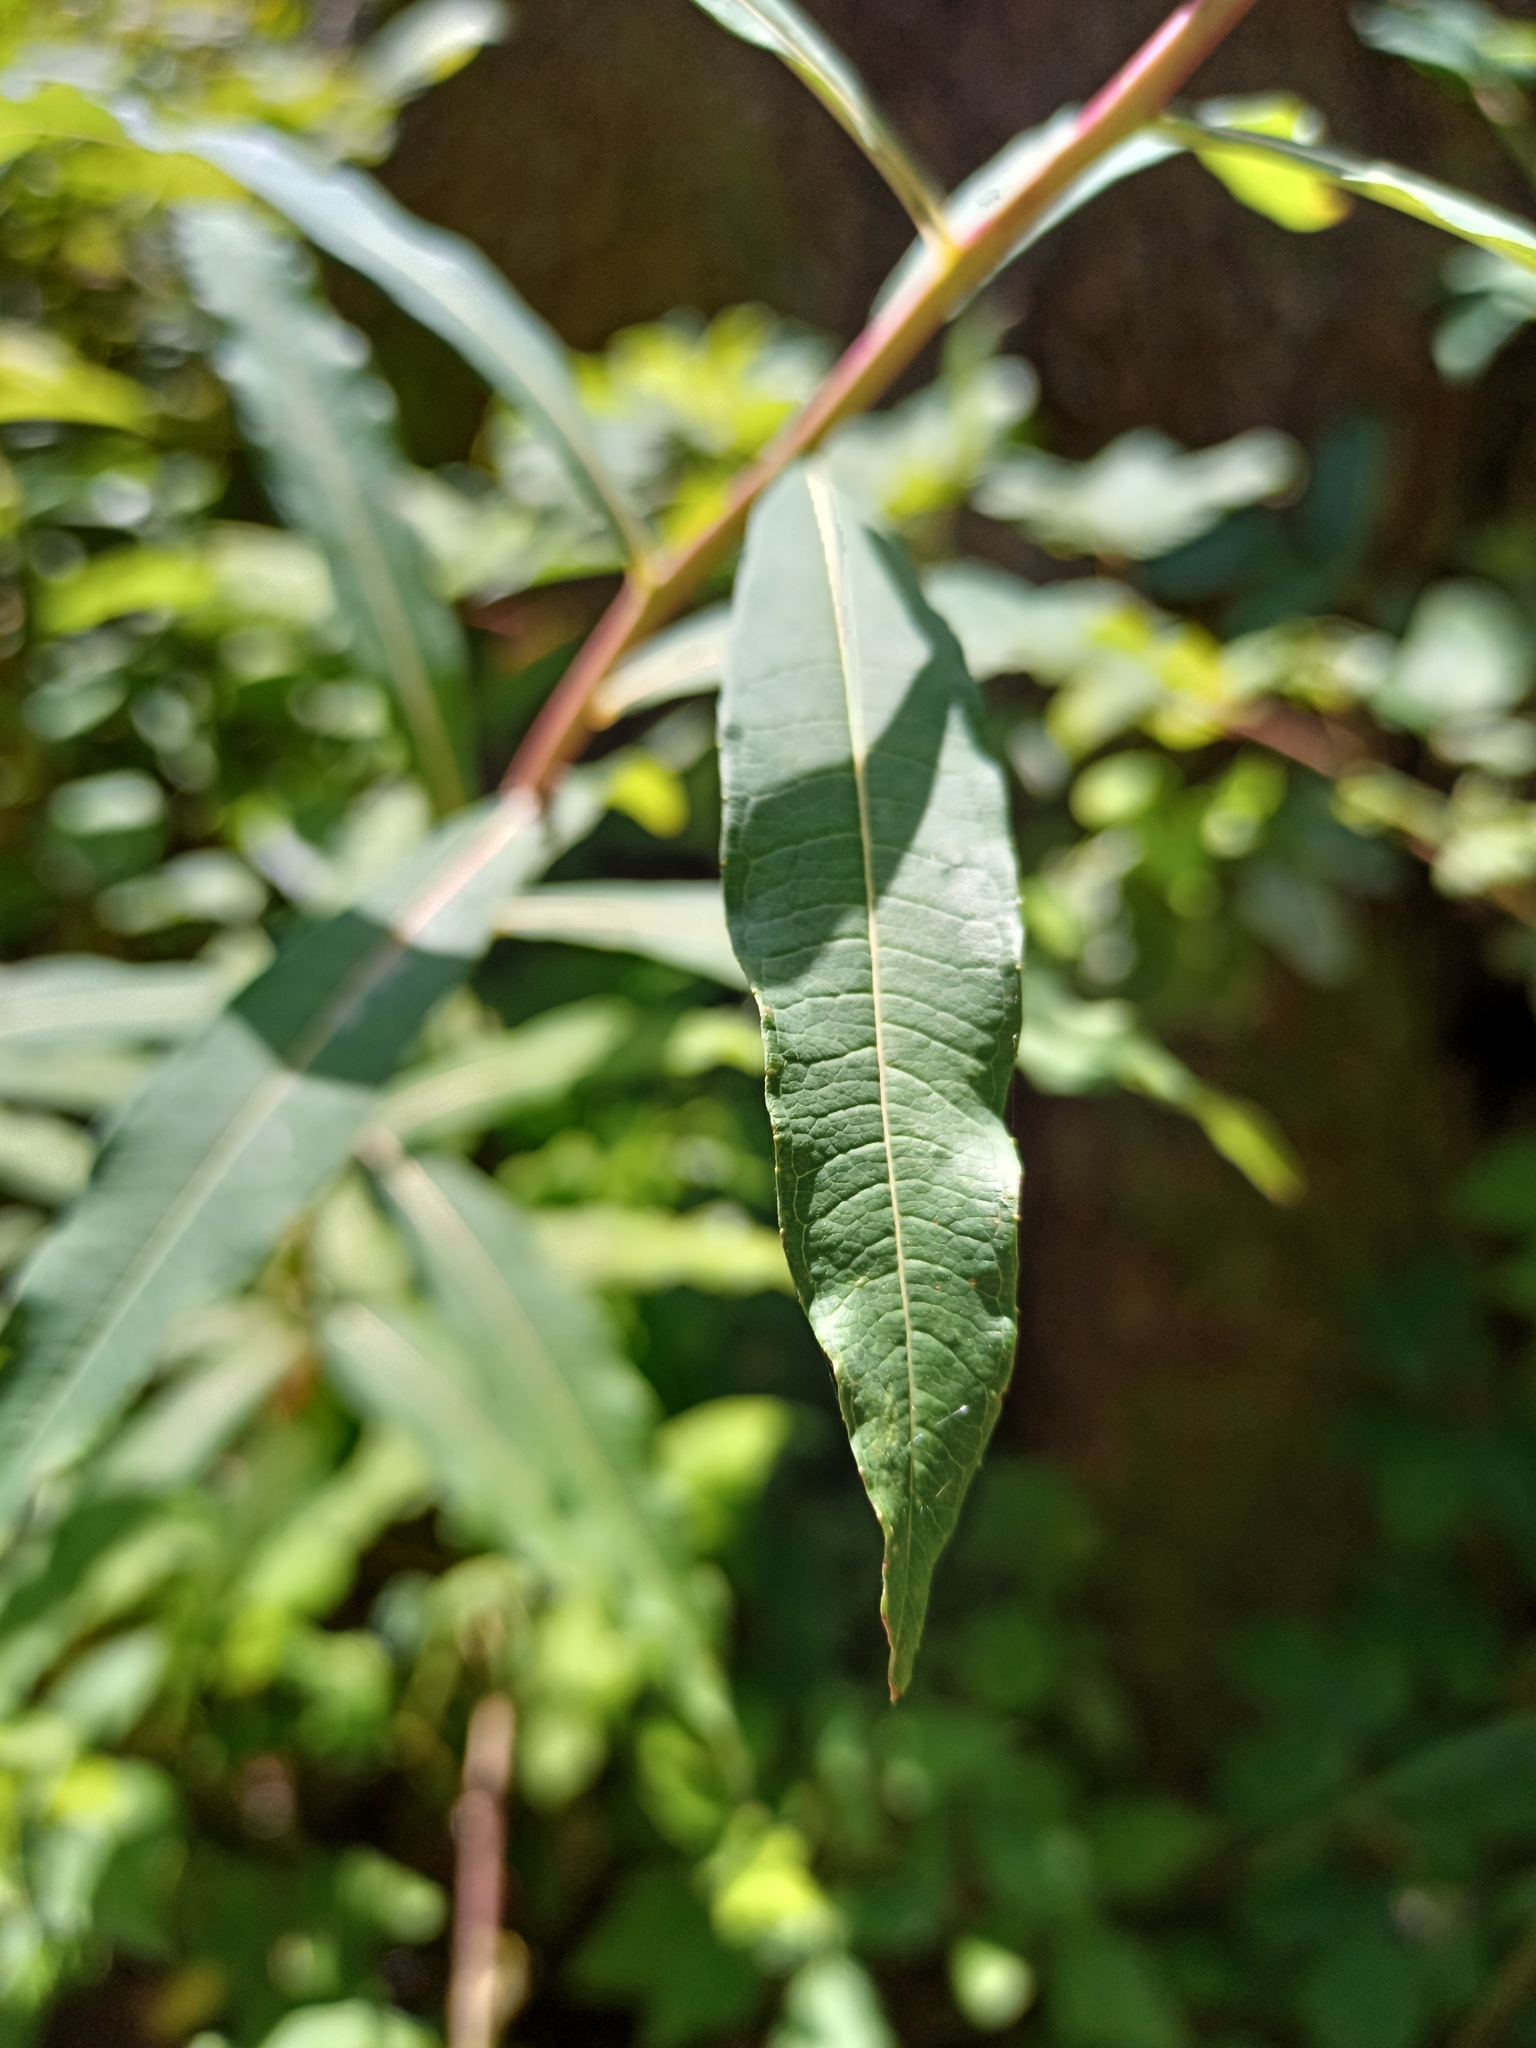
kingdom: Plantae
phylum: Tracheophyta
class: Magnoliopsida
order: Myrtales
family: Onagraceae
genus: Chamaenerion
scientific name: Chamaenerion angustifolium
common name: Fireweed
